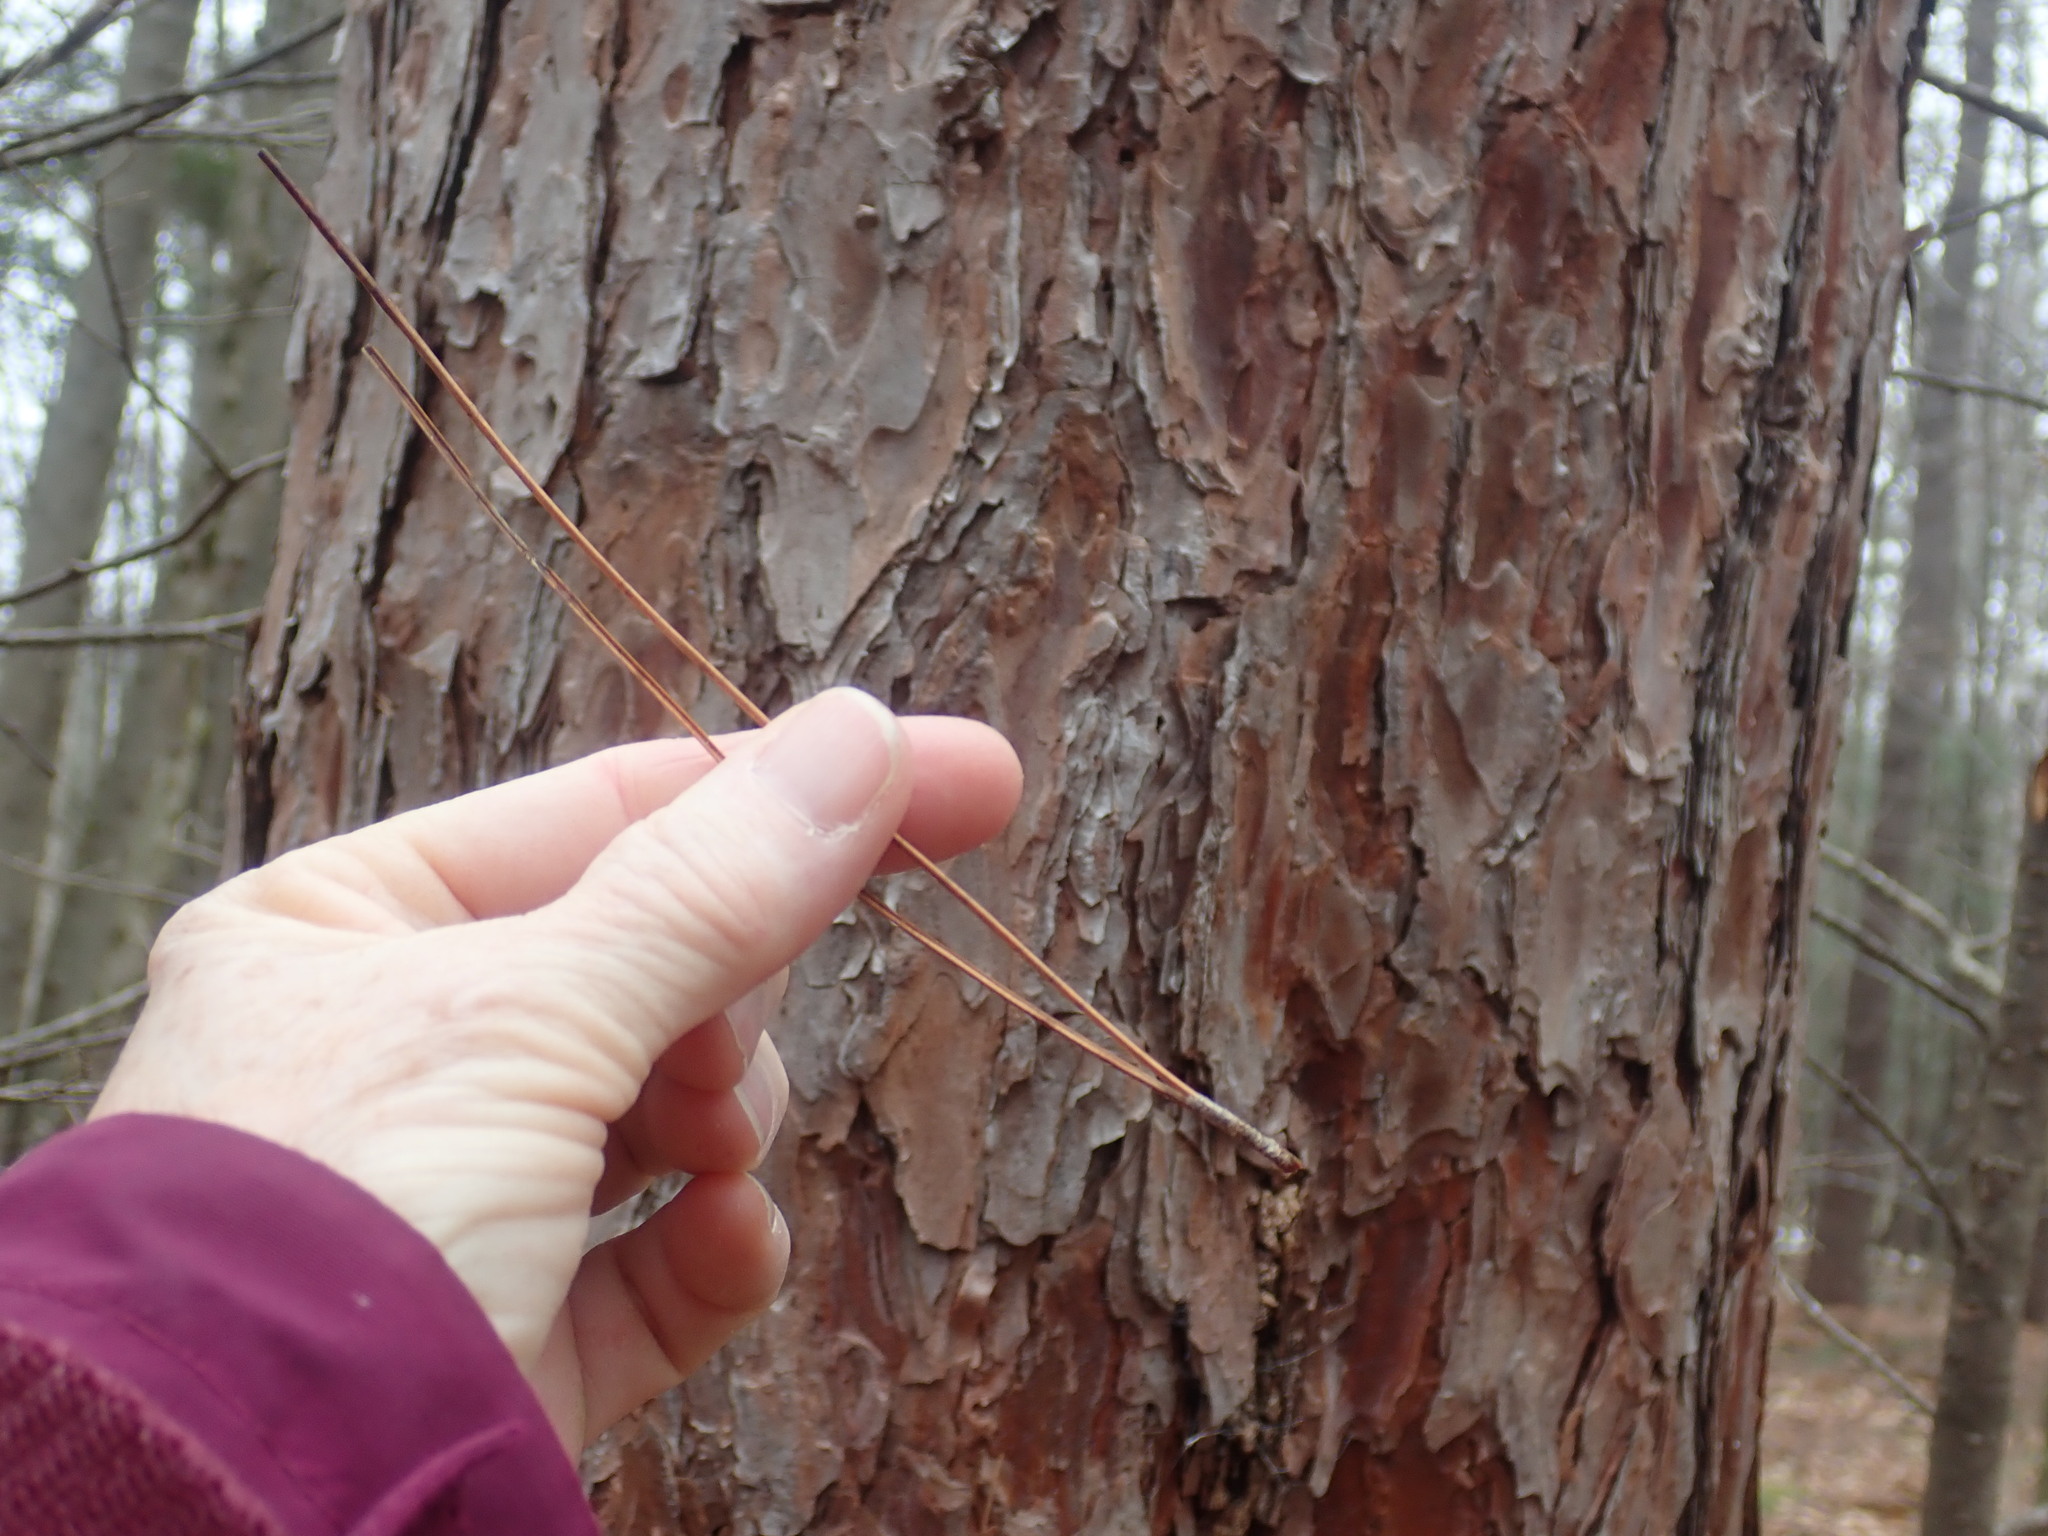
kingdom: Plantae
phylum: Tracheophyta
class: Pinopsida
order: Pinales
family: Pinaceae
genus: Pinus
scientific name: Pinus resinosa
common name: Norway pine
